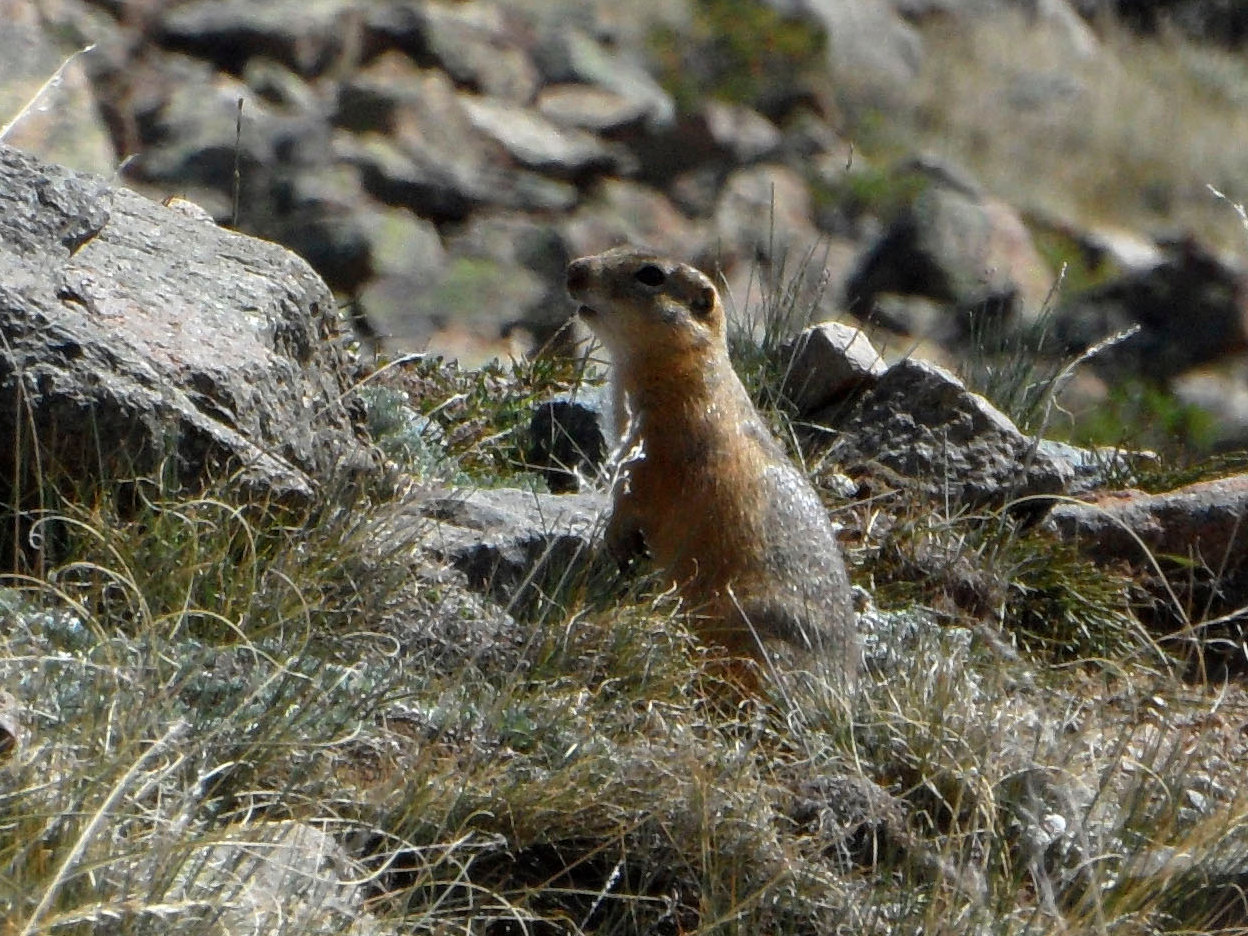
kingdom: Animalia
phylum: Chordata
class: Mammalia
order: Rodentia
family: Sciuridae
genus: Urocitellus
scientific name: Urocitellus undulatus
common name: Long-tailed ground squirrel
